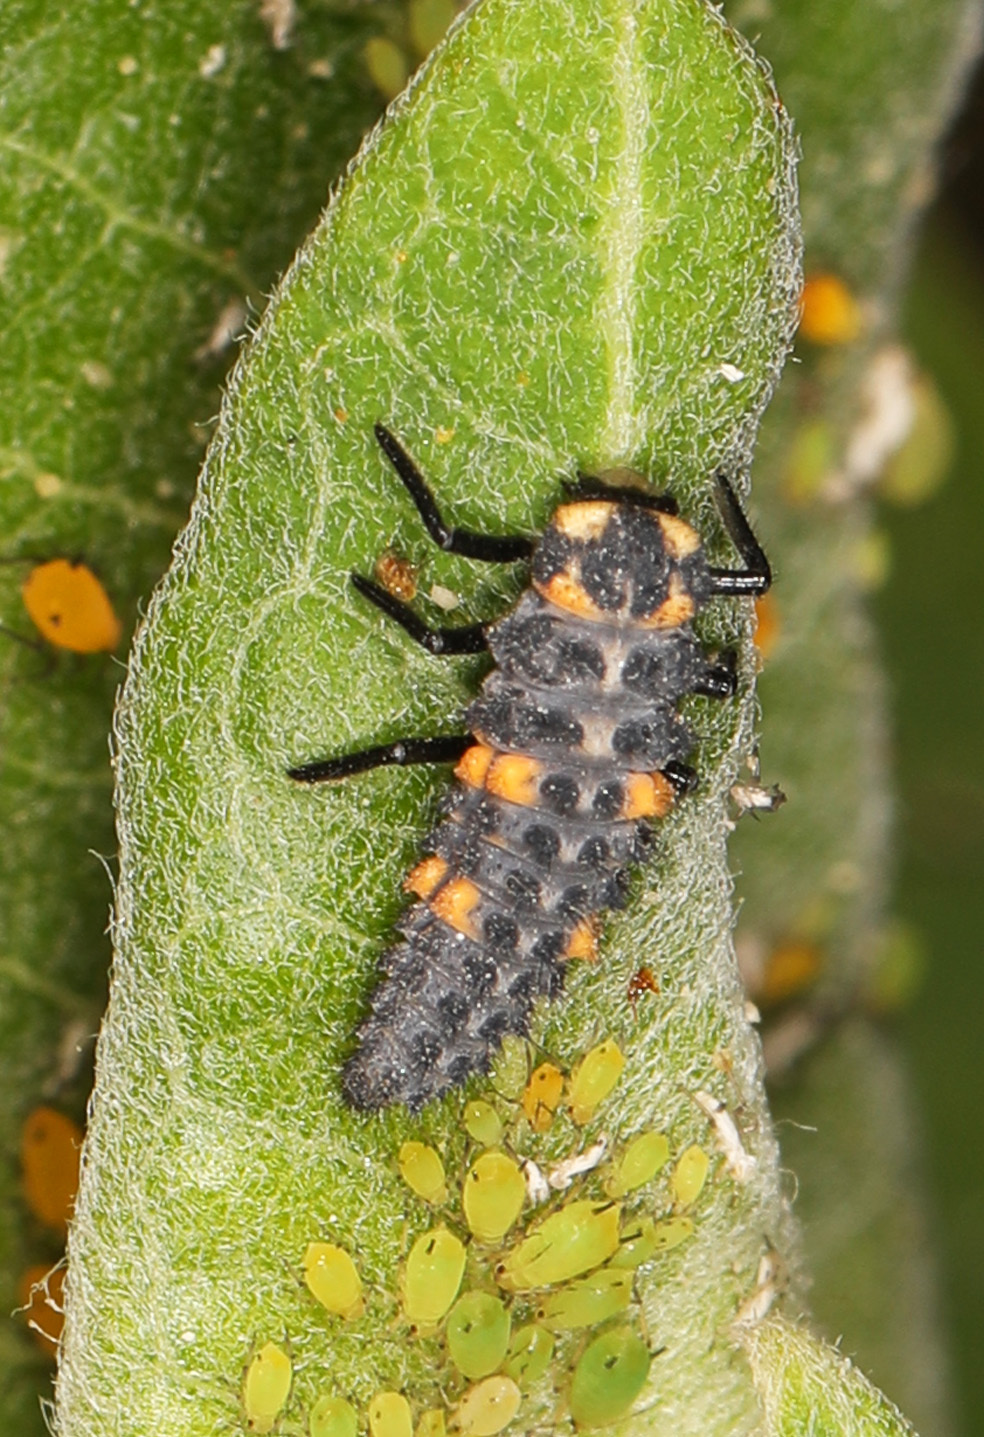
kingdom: Animalia
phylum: Arthropoda
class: Insecta
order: Coleoptera
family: Coccinellidae
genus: Coccinella
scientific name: Coccinella septempunctata
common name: Sevenspotted lady beetle
